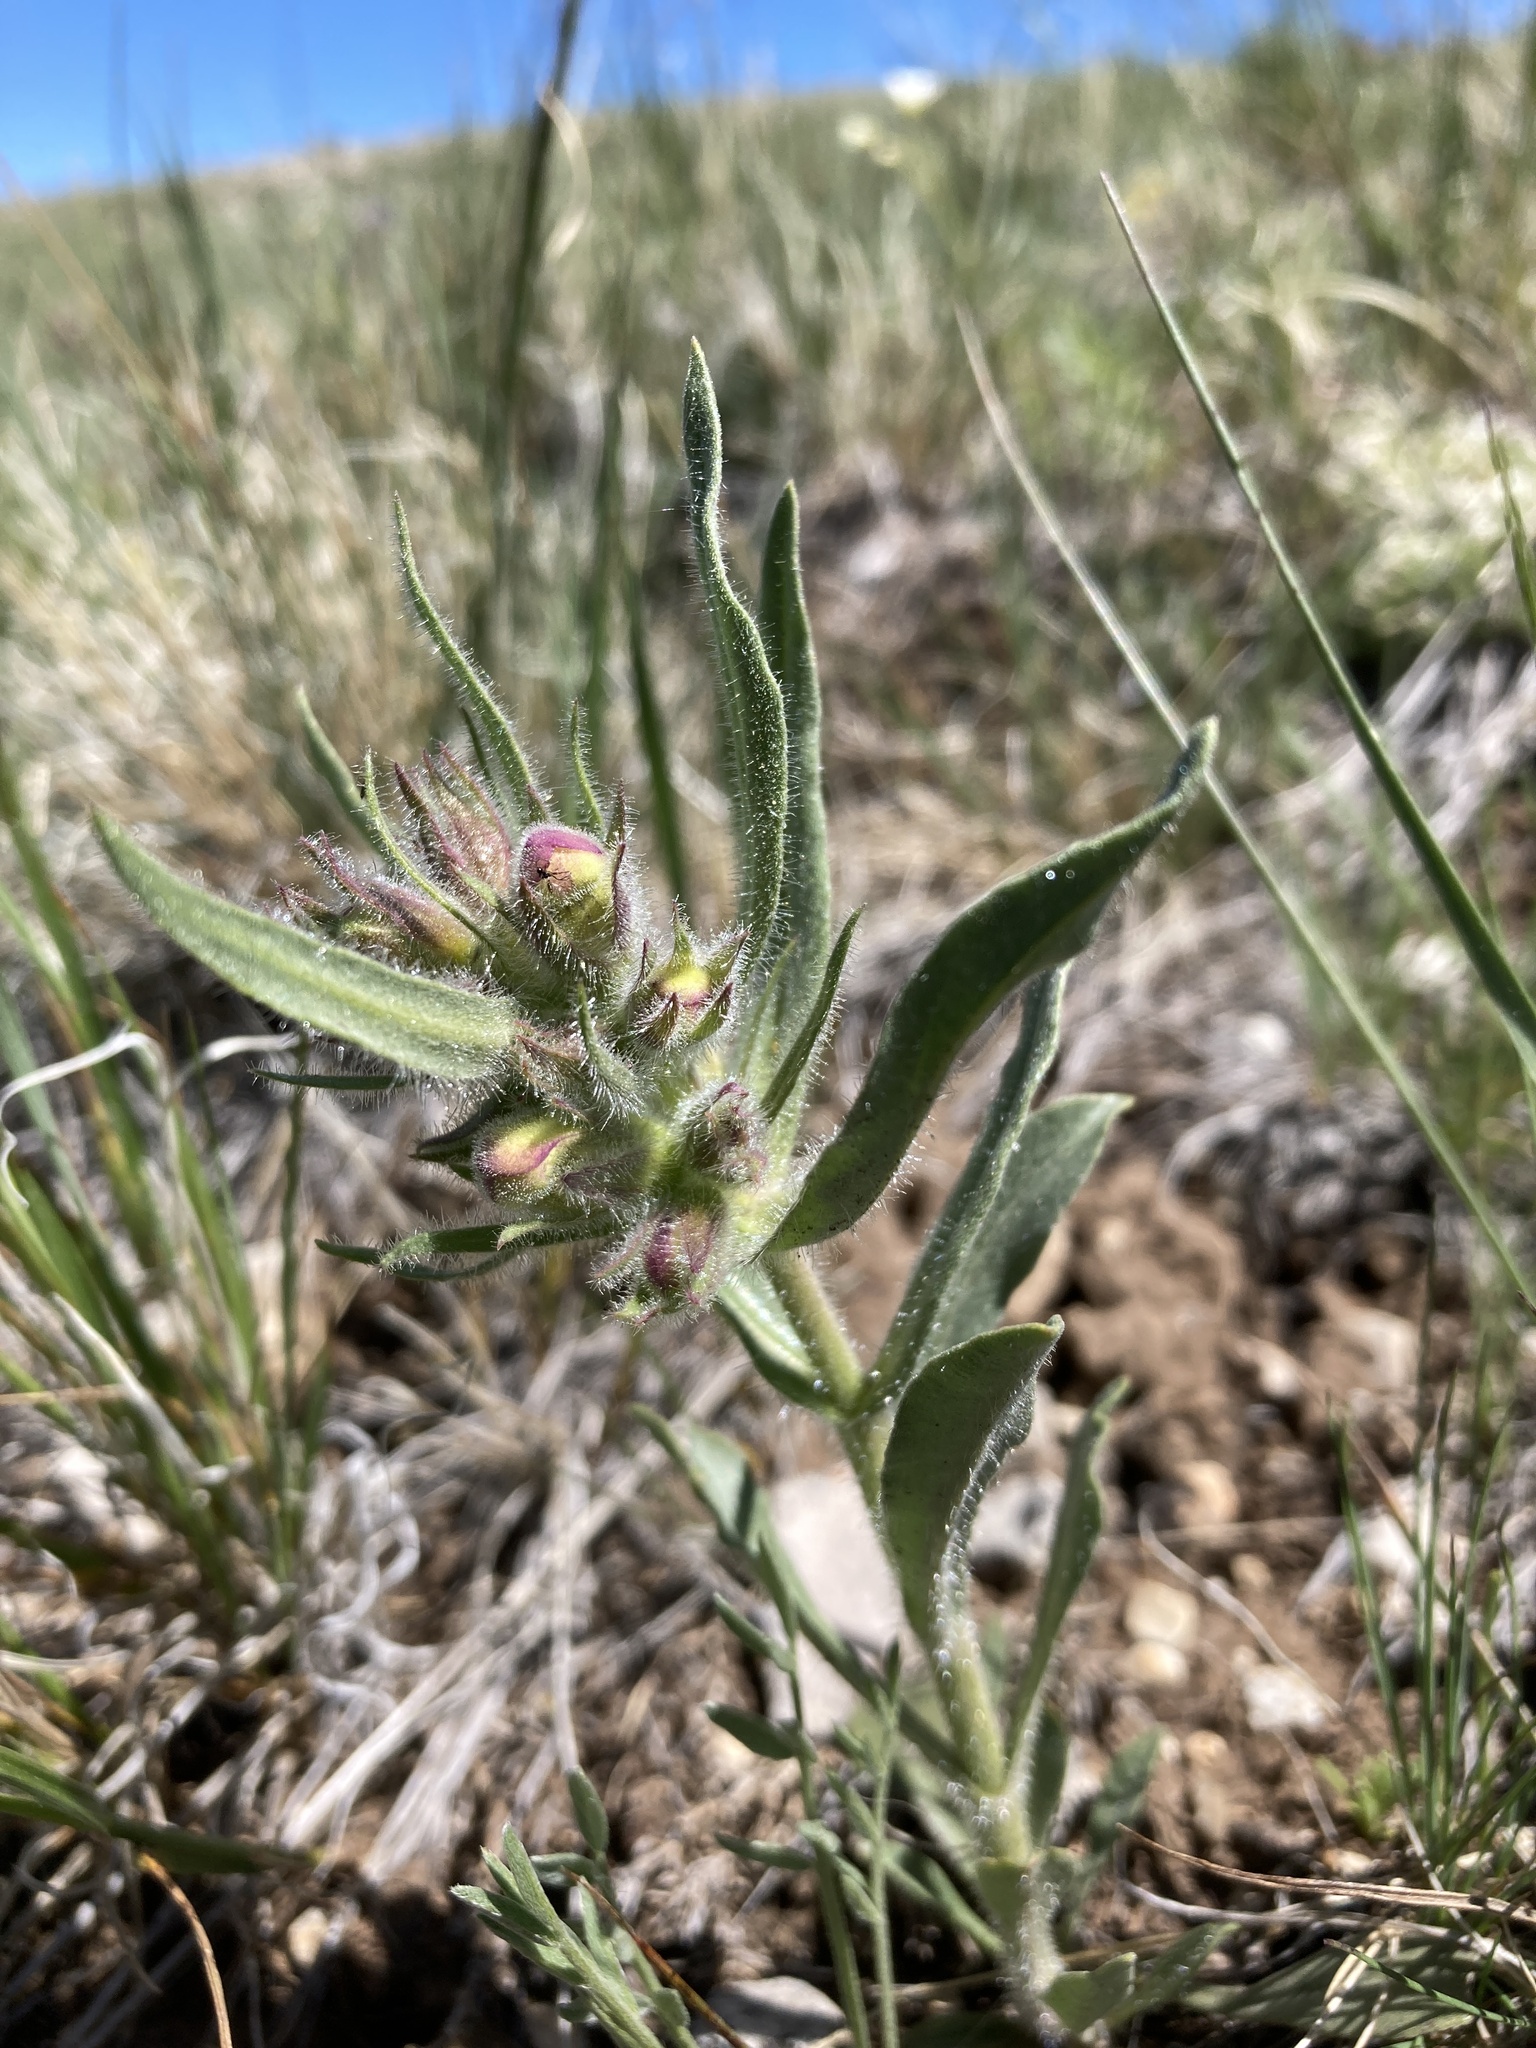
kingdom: Plantae
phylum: Tracheophyta
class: Magnoliopsida
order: Lamiales
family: Plantaginaceae
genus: Penstemon
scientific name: Penstemon eriantherus
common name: Crested beardtongue
